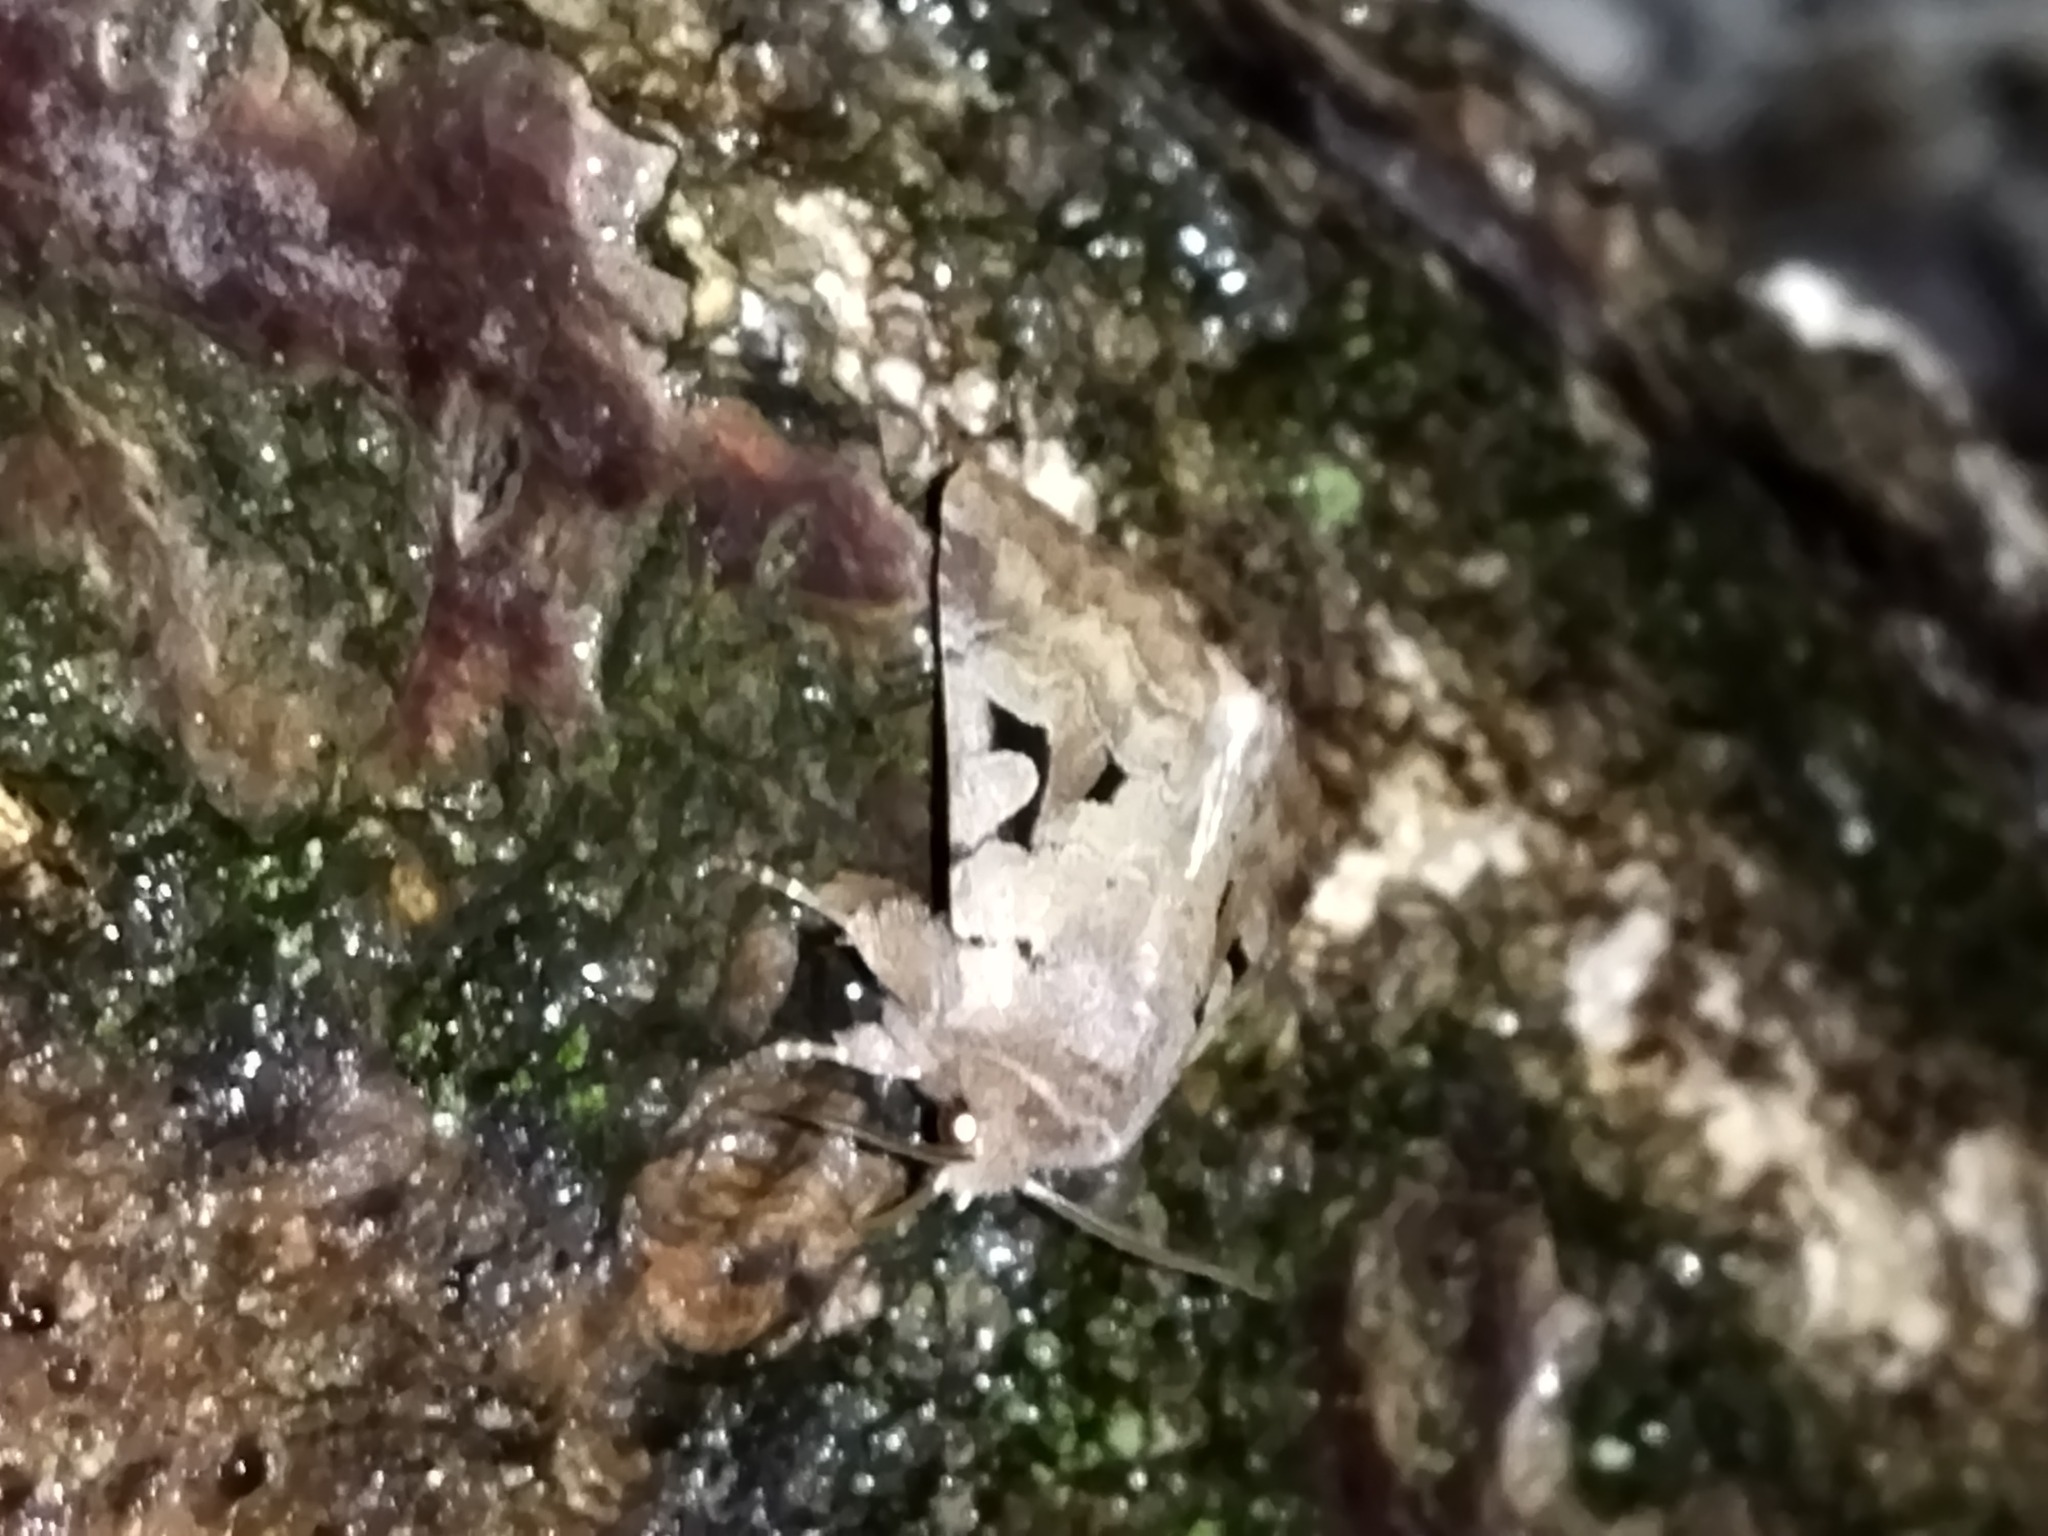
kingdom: Animalia
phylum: Arthropoda
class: Insecta
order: Lepidoptera
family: Noctuidae
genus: Orthosia
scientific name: Orthosia gothica
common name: Hebrew character
